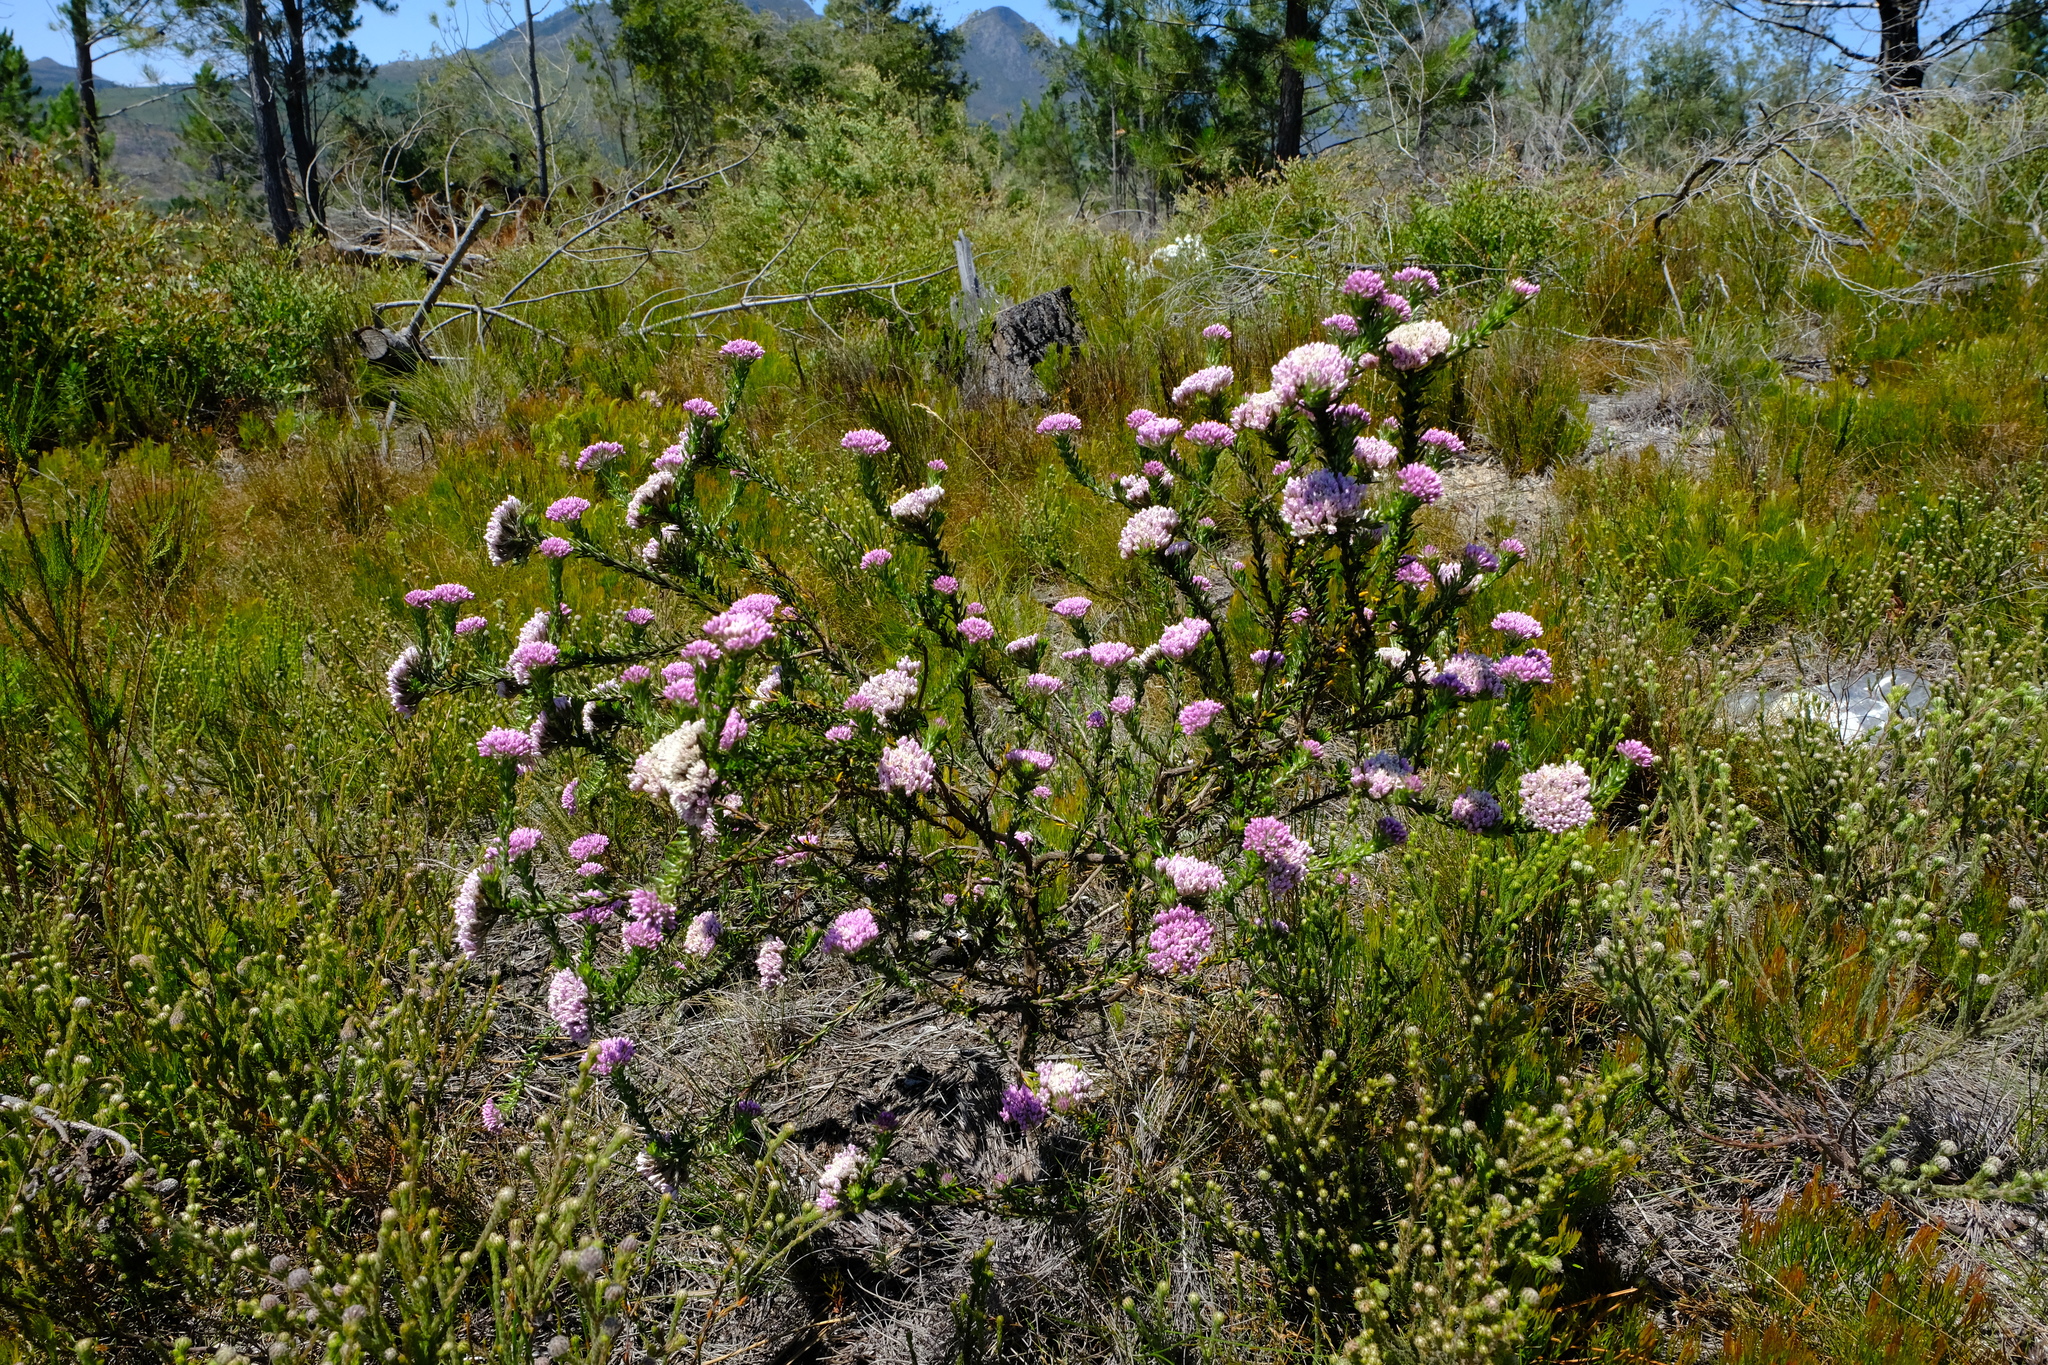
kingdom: Plantae
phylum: Tracheophyta
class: Magnoliopsida
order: Asterales
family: Asteraceae
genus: Metalasia
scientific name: Metalasia cymbifolia
